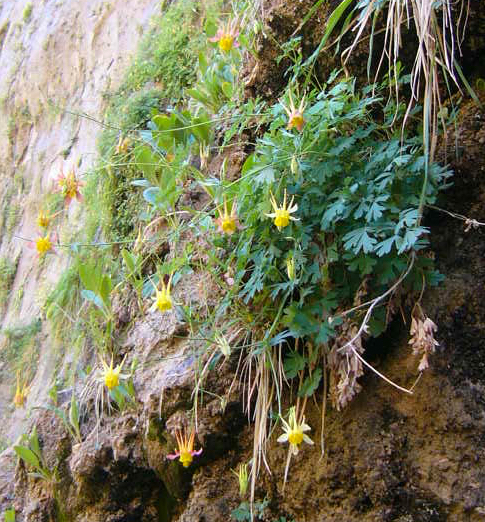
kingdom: Plantae
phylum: Tracheophyta
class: Magnoliopsida
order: Ranunculales
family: Ranunculaceae
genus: Aquilegia
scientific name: Aquilegia chrysantha
